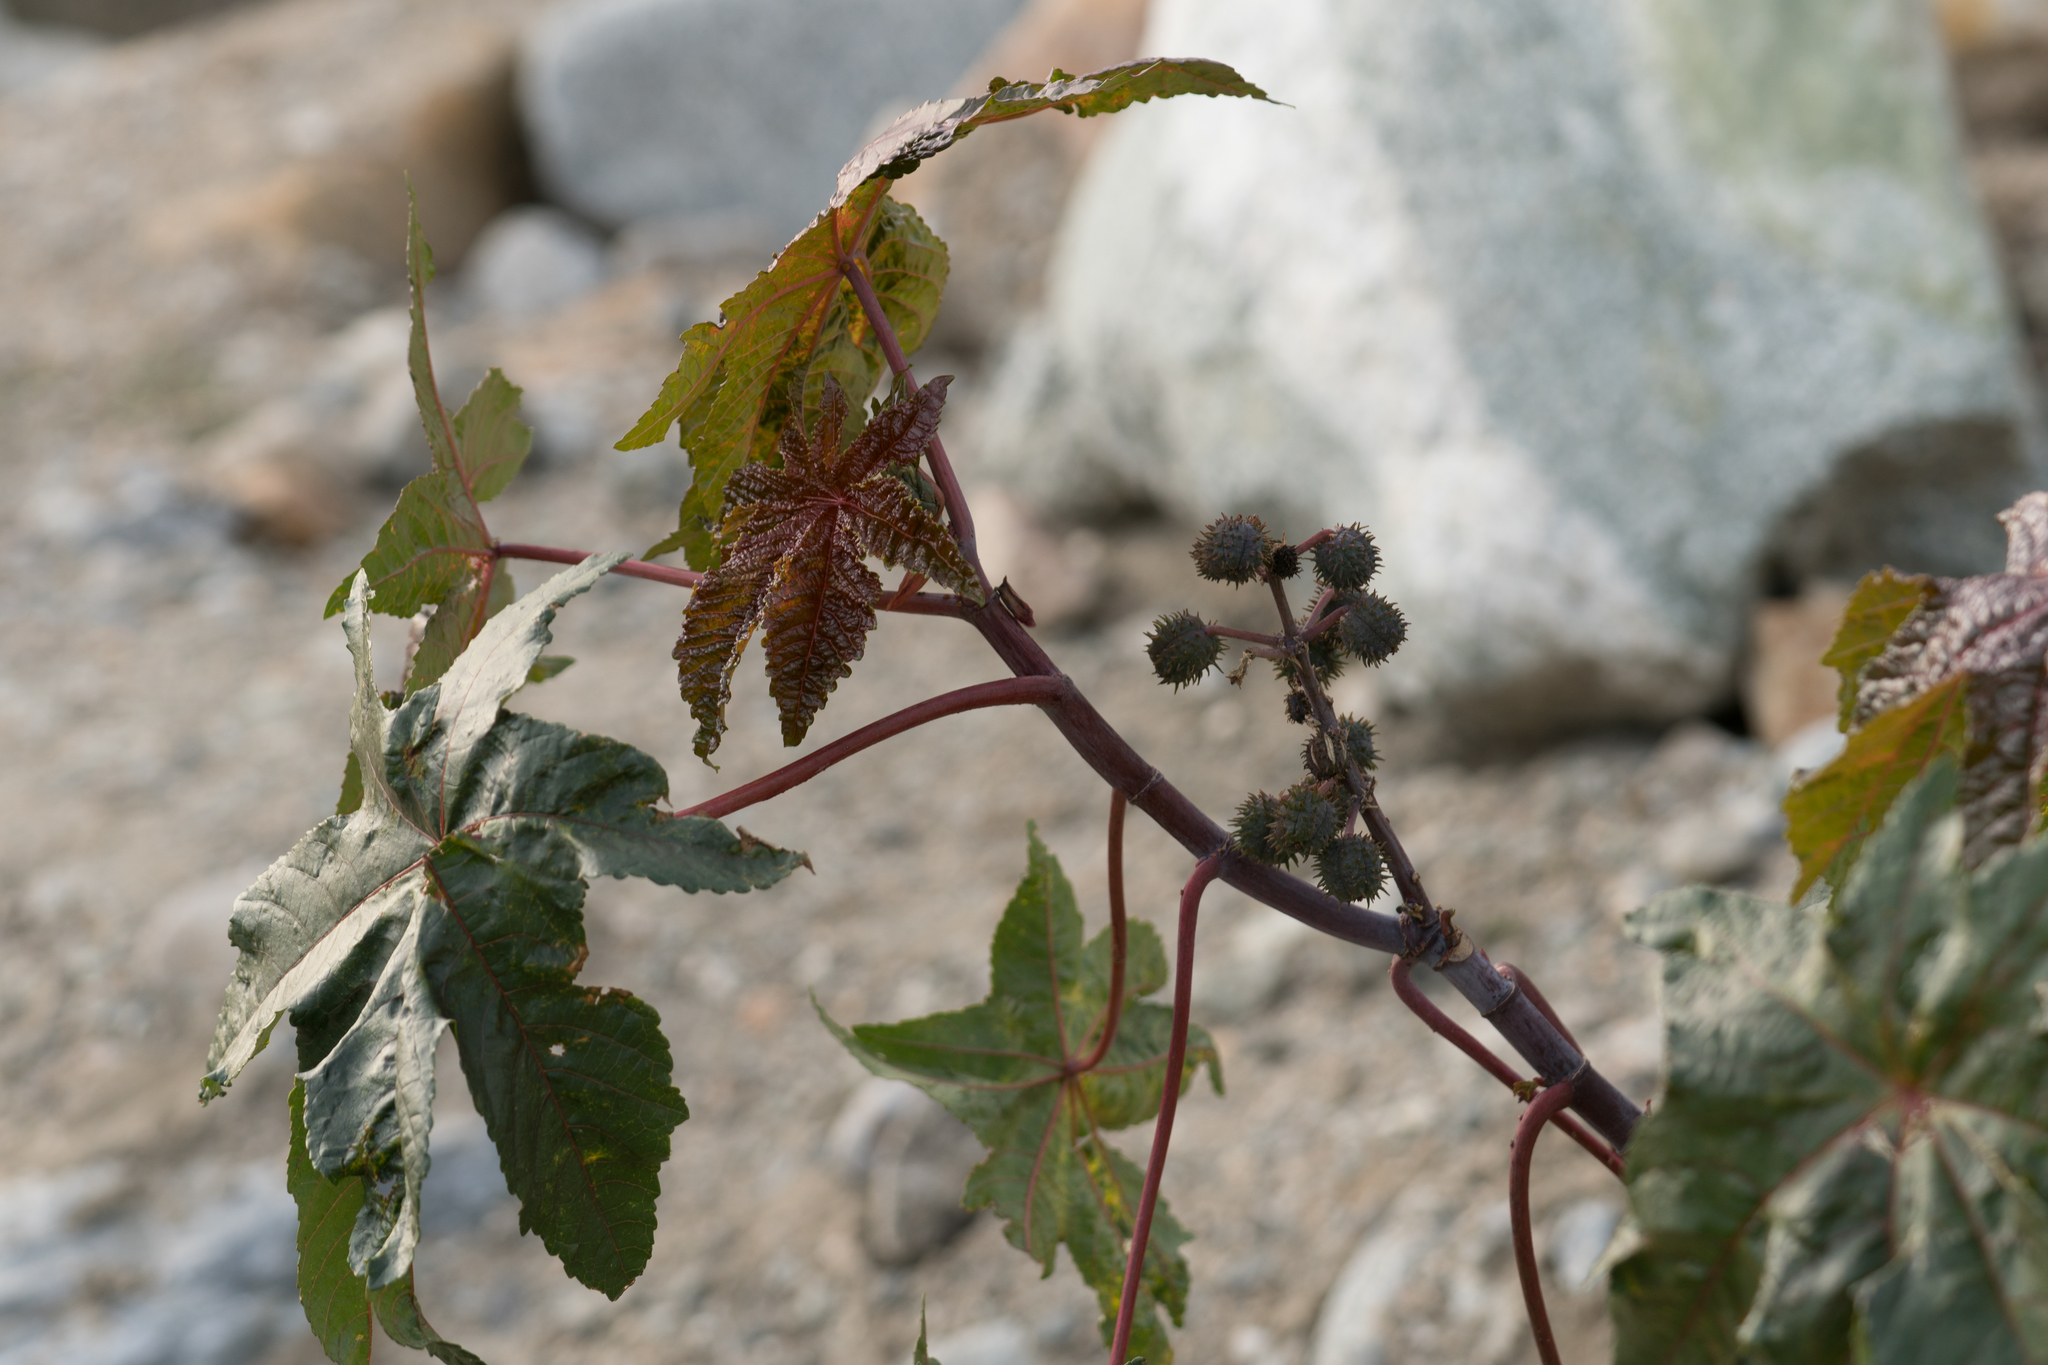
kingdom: Plantae
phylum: Tracheophyta
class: Magnoliopsida
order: Malpighiales
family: Euphorbiaceae
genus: Ricinus
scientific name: Ricinus communis
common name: Castor-oil-plant
